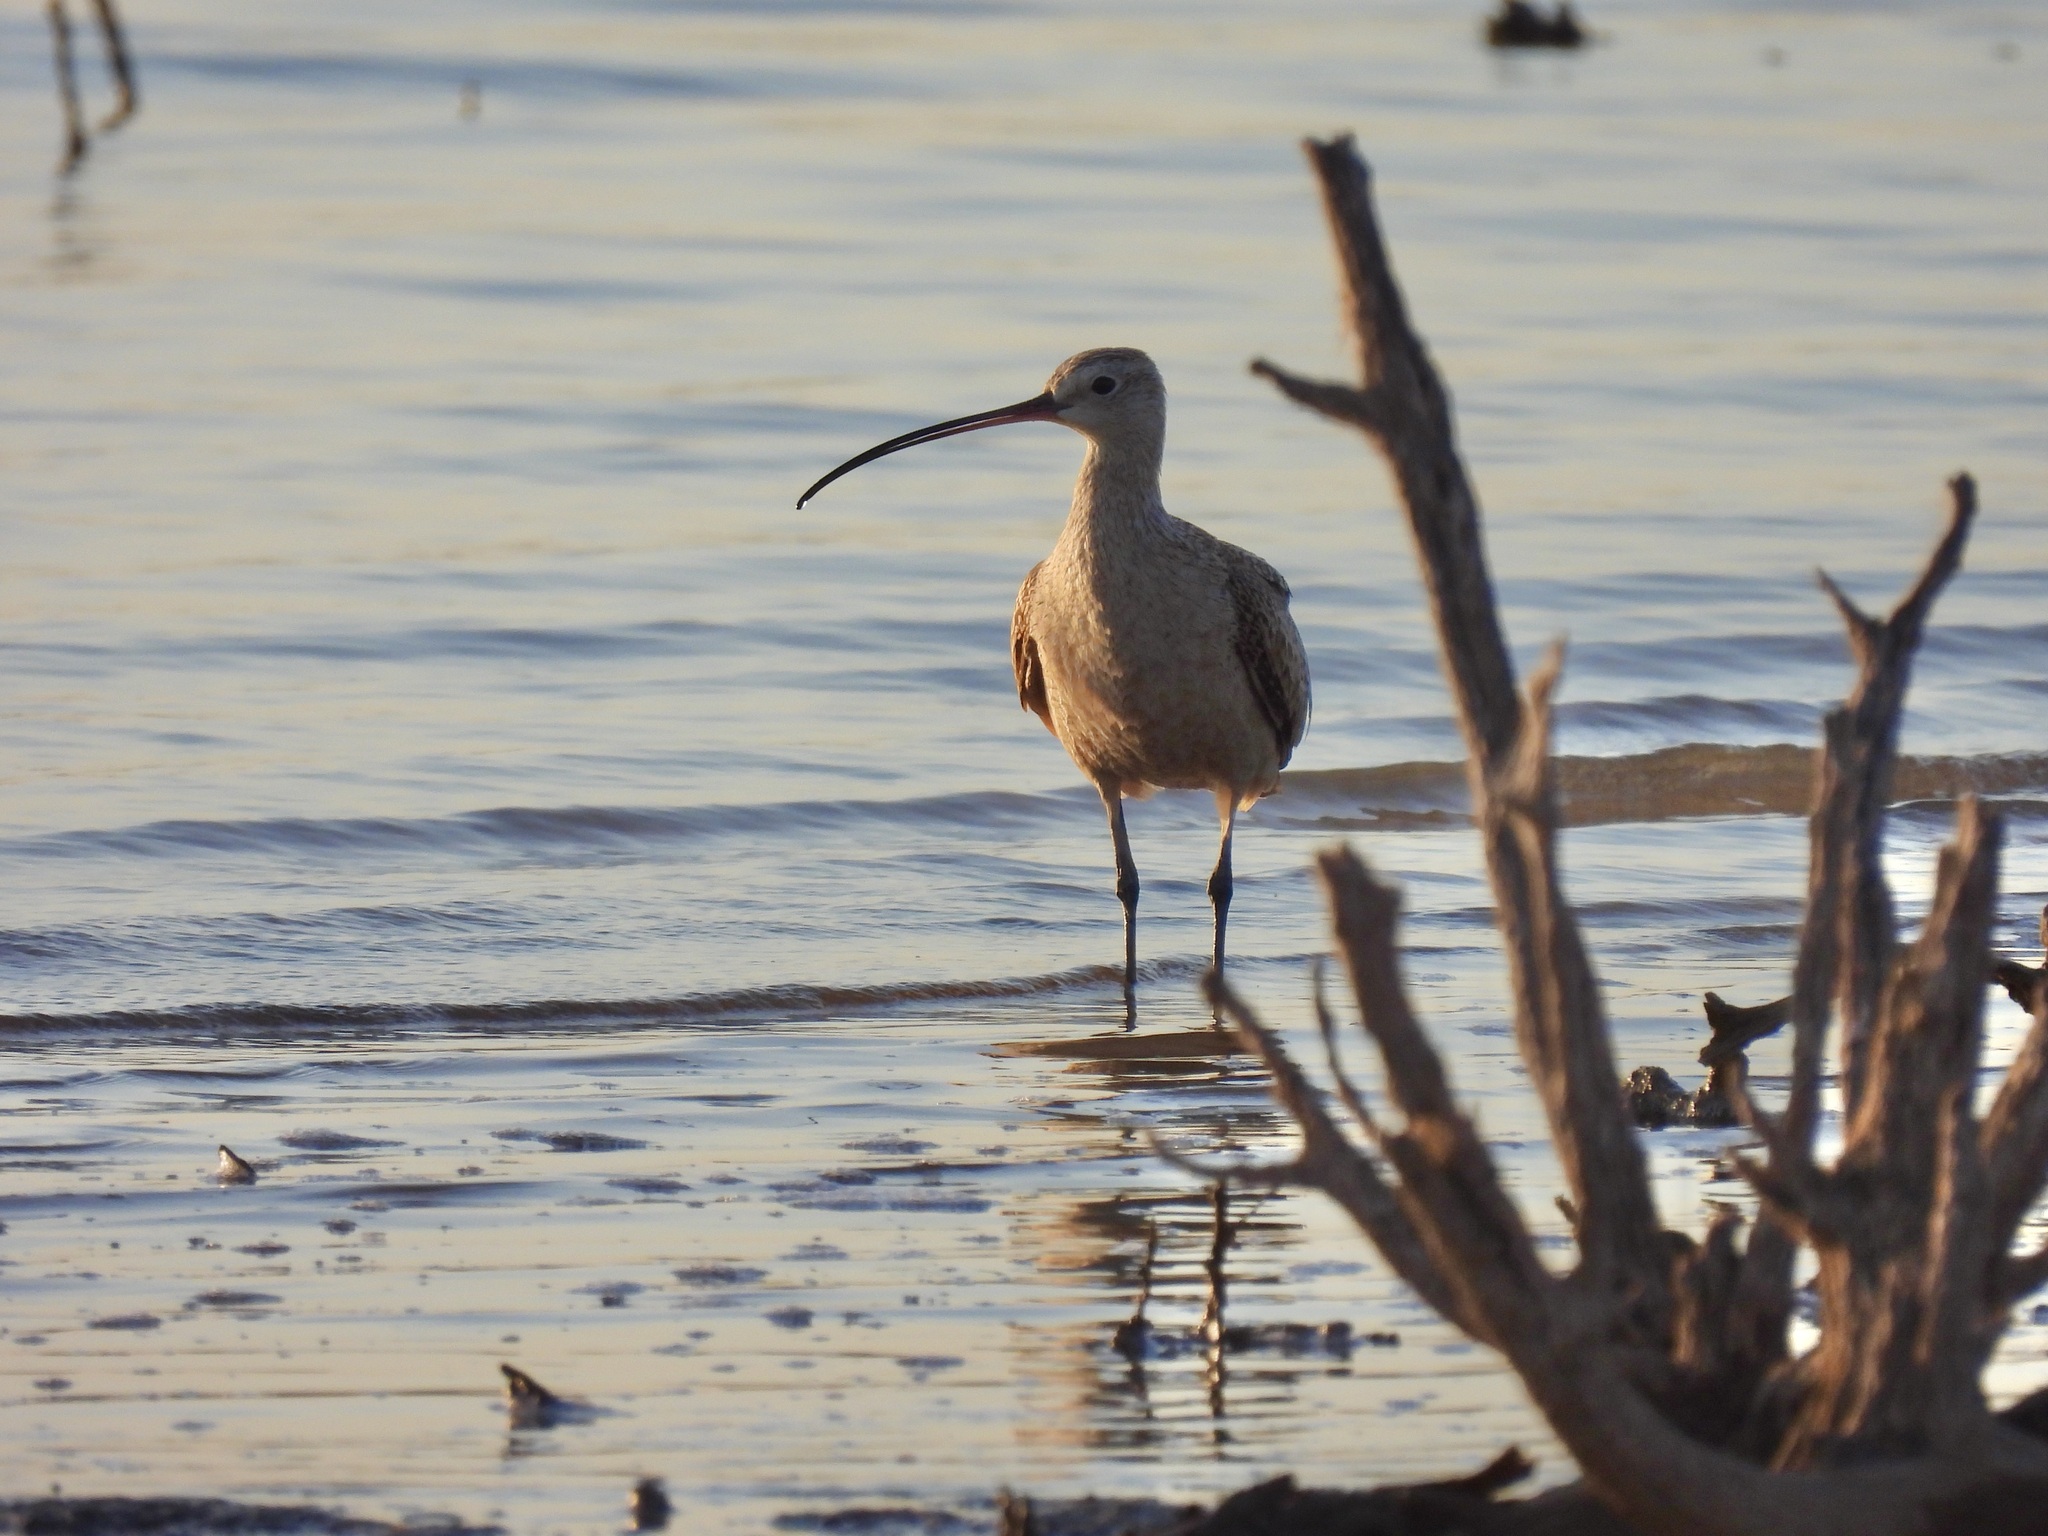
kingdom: Animalia
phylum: Chordata
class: Aves
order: Charadriiformes
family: Scolopacidae
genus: Numenius
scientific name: Numenius americanus
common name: Long-billed curlew
